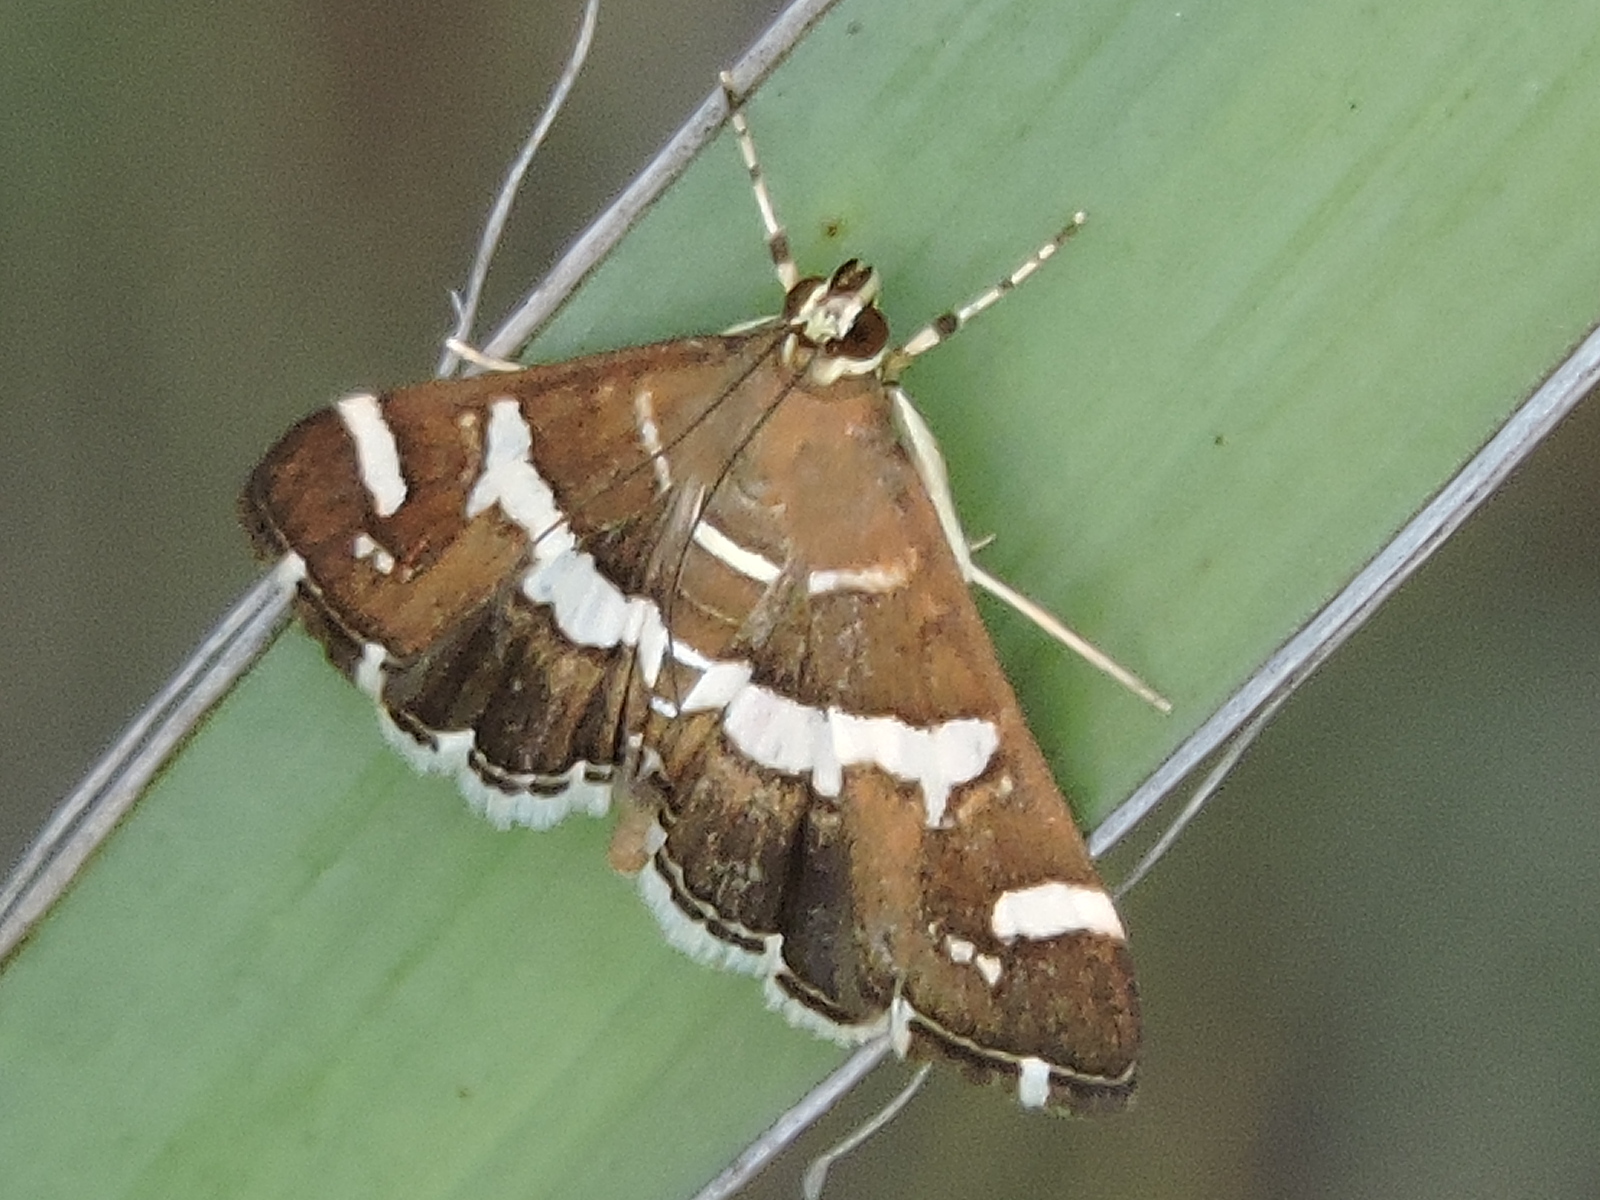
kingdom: Animalia
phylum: Arthropoda
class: Insecta
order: Lepidoptera
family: Crambidae
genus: Spoladea
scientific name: Spoladea recurvalis
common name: Beet webworm moth
